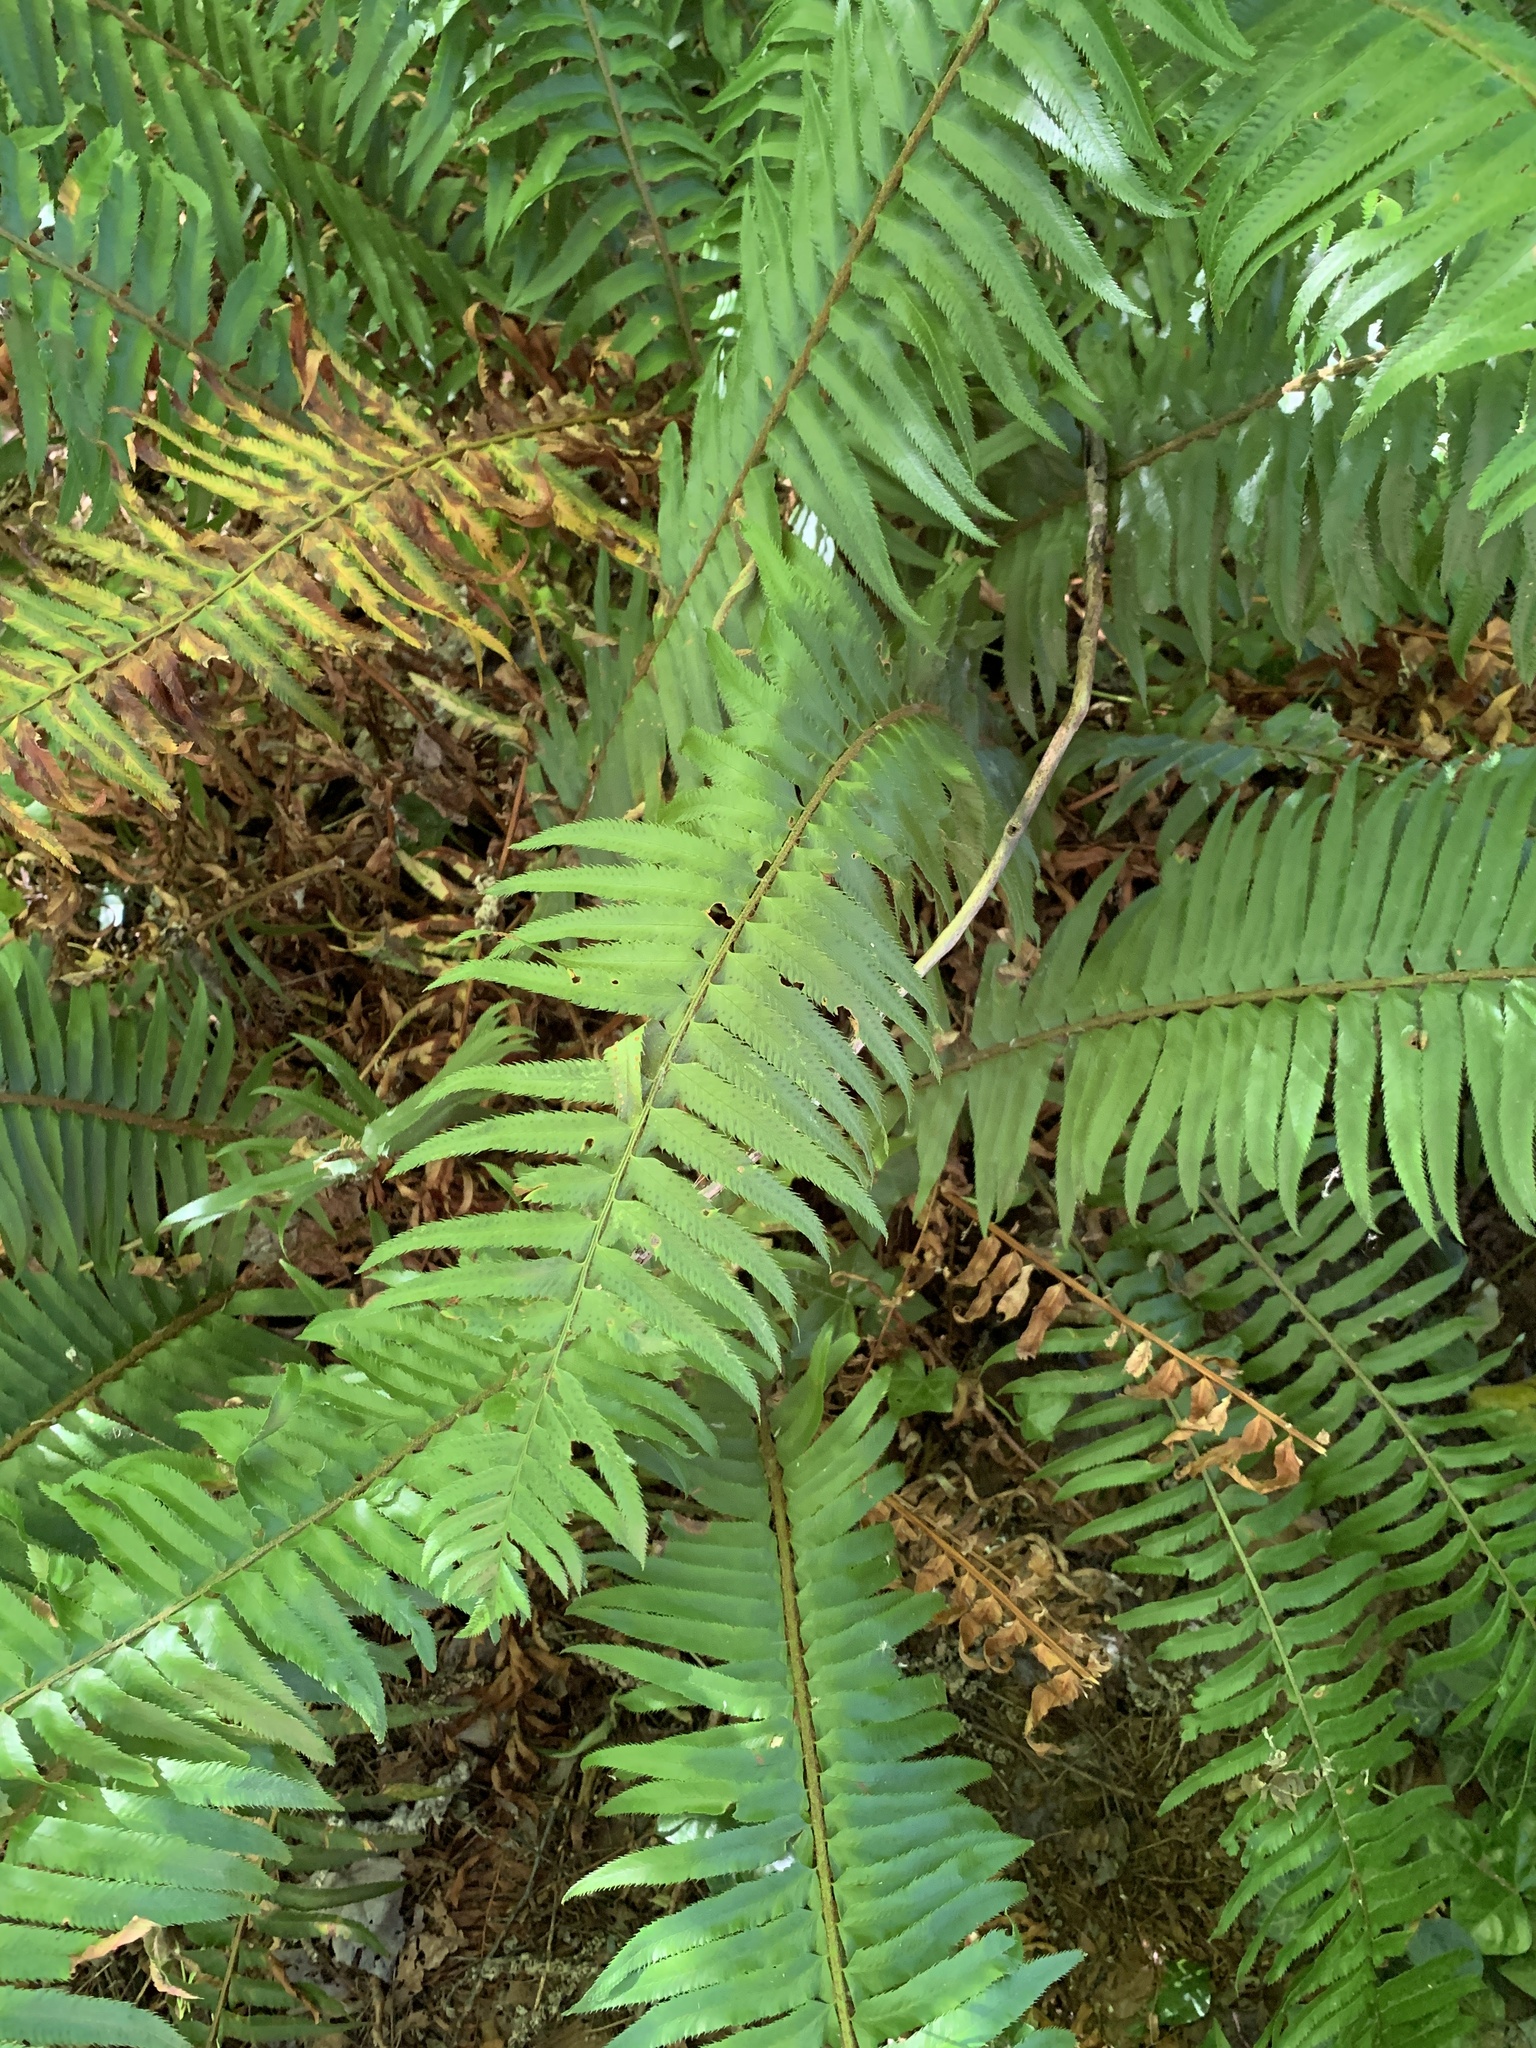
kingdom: Plantae
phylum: Tracheophyta
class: Polypodiopsida
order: Polypodiales
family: Dryopteridaceae
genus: Polystichum
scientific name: Polystichum munitum
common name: Western sword-fern
